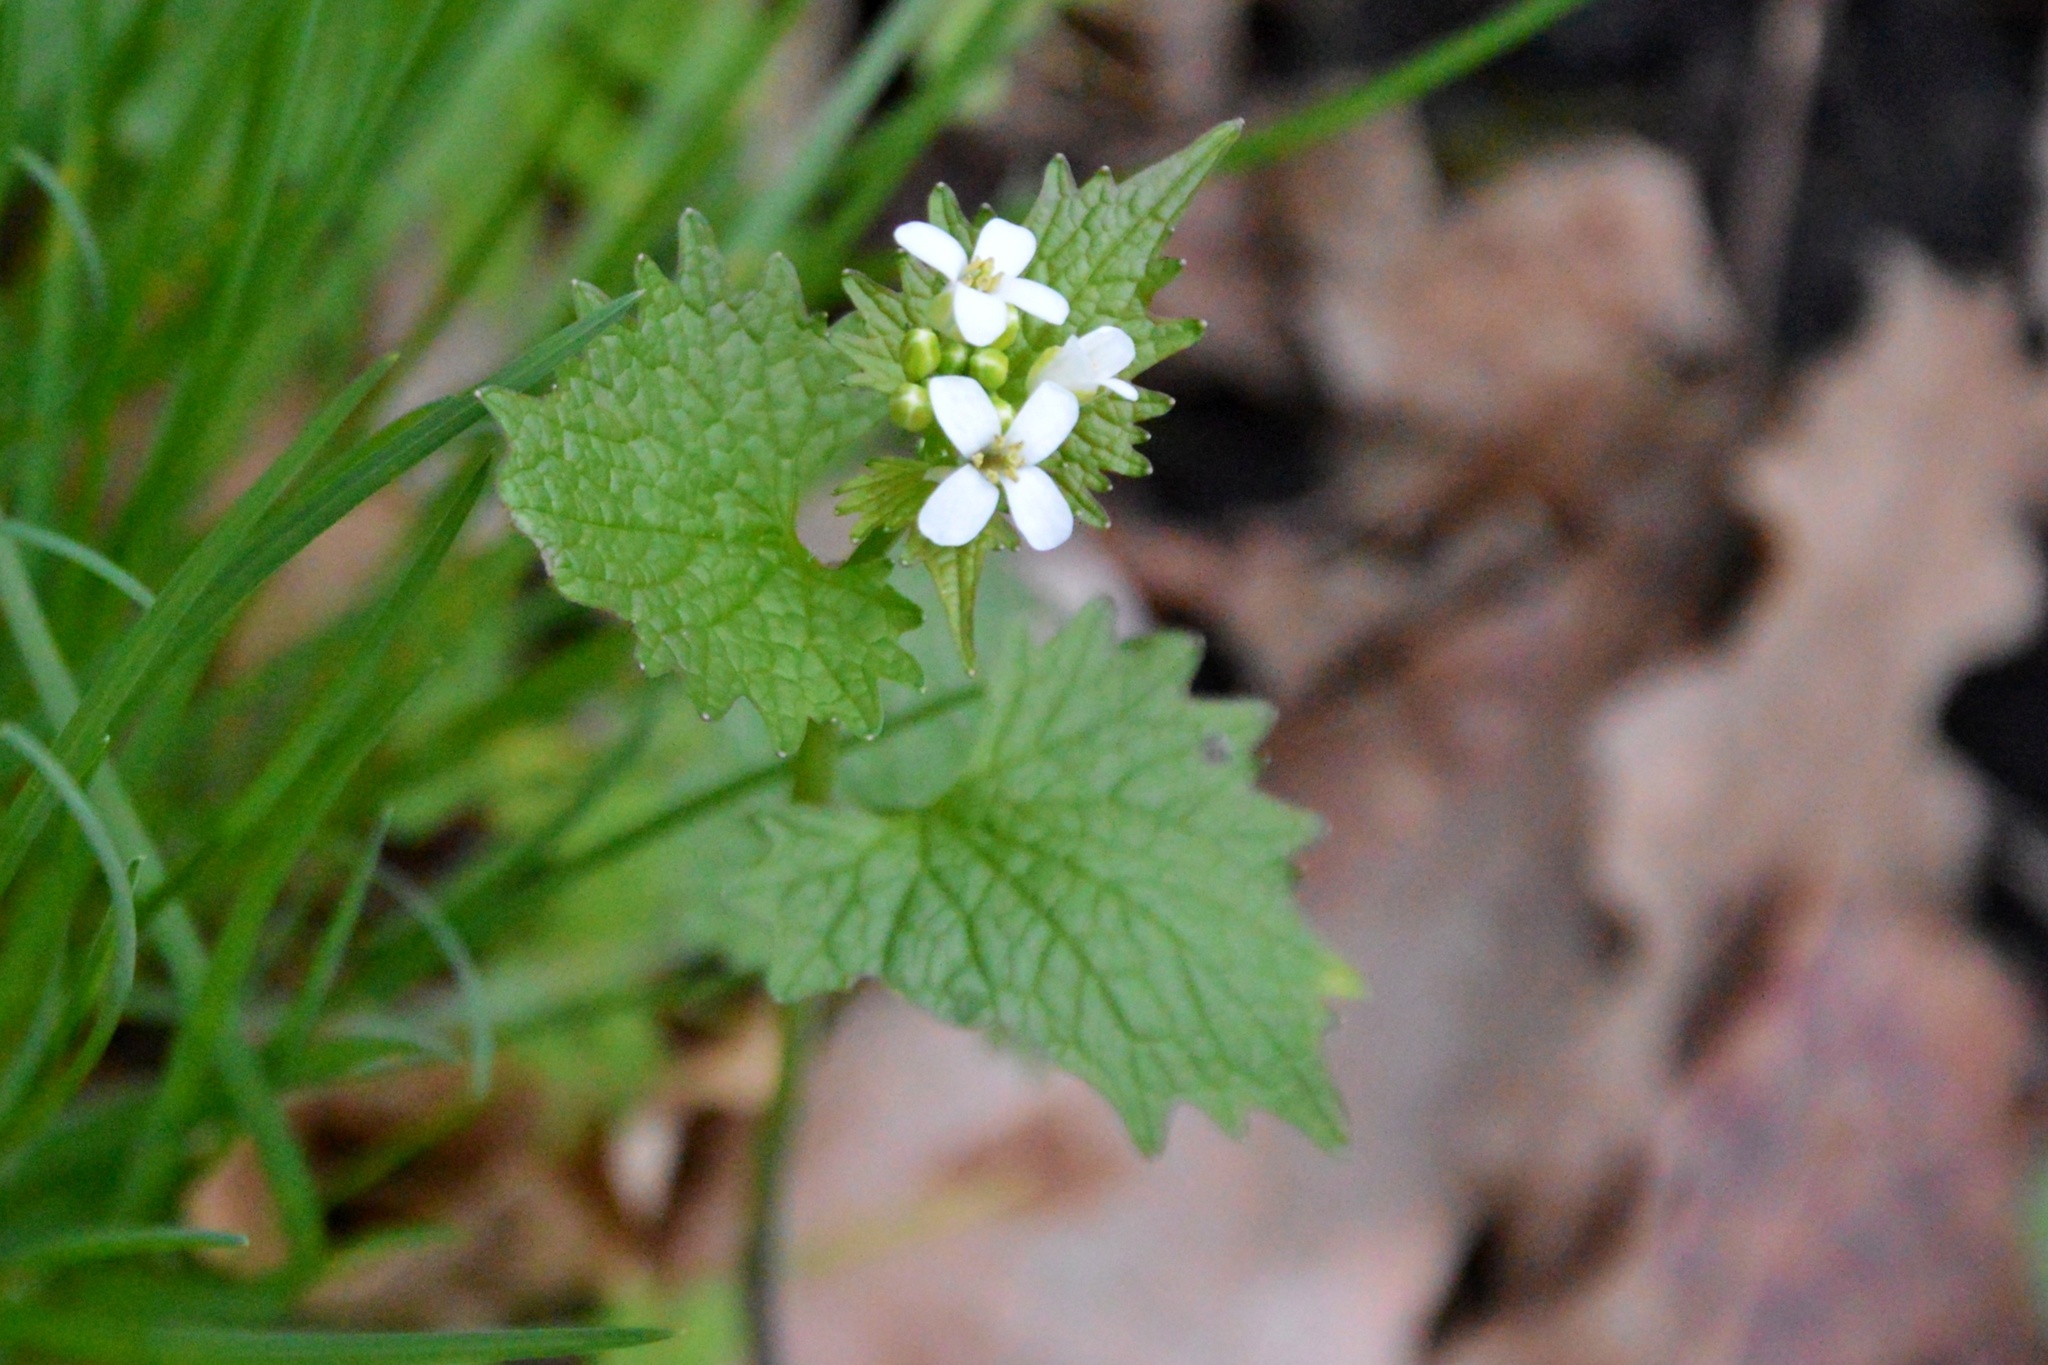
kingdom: Plantae
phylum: Tracheophyta
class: Magnoliopsida
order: Brassicales
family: Brassicaceae
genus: Alliaria
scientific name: Alliaria petiolata
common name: Garlic mustard
